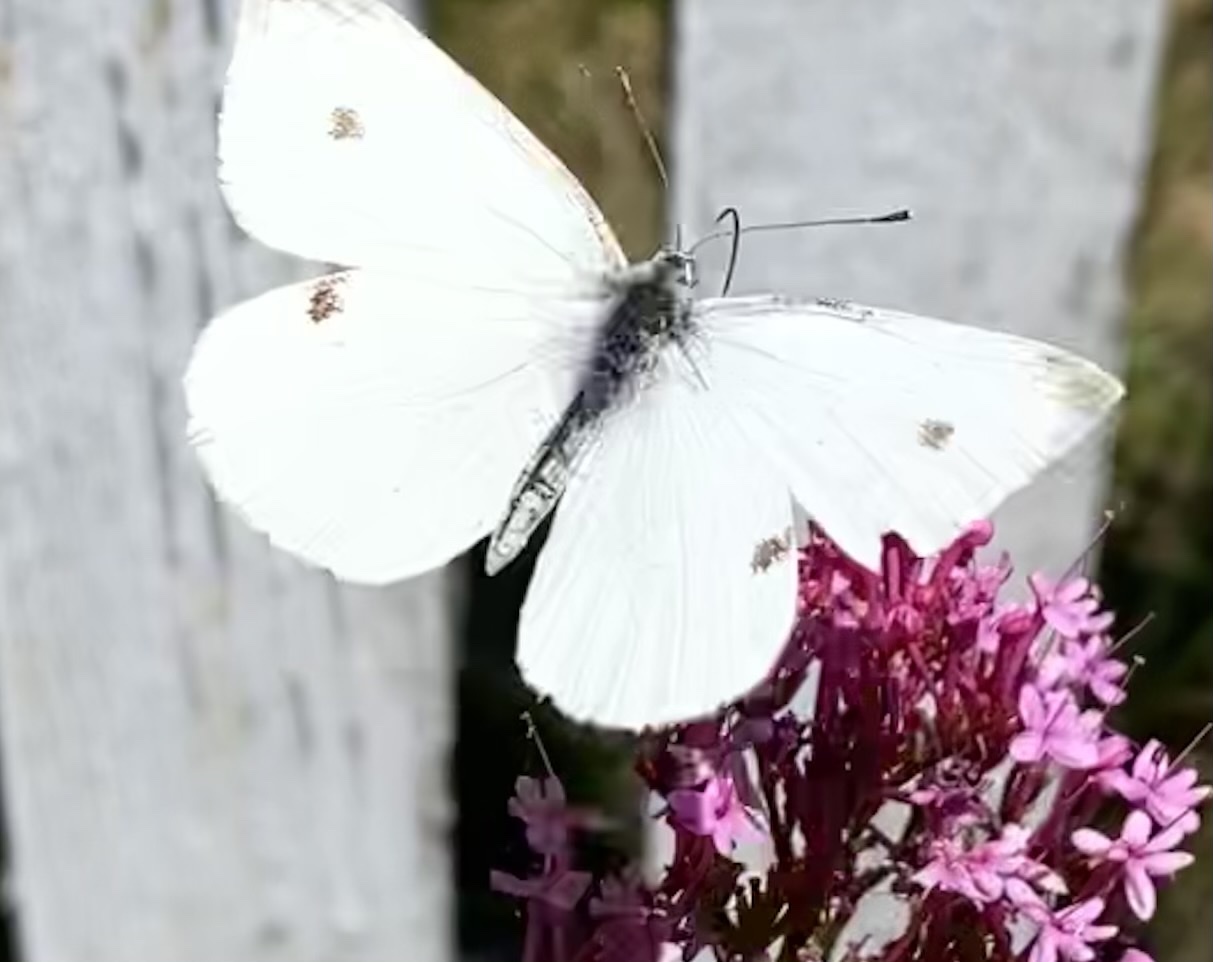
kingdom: Animalia
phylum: Arthropoda
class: Insecta
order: Lepidoptera
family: Pieridae
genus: Pieris
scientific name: Pieris rapae
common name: Small white
